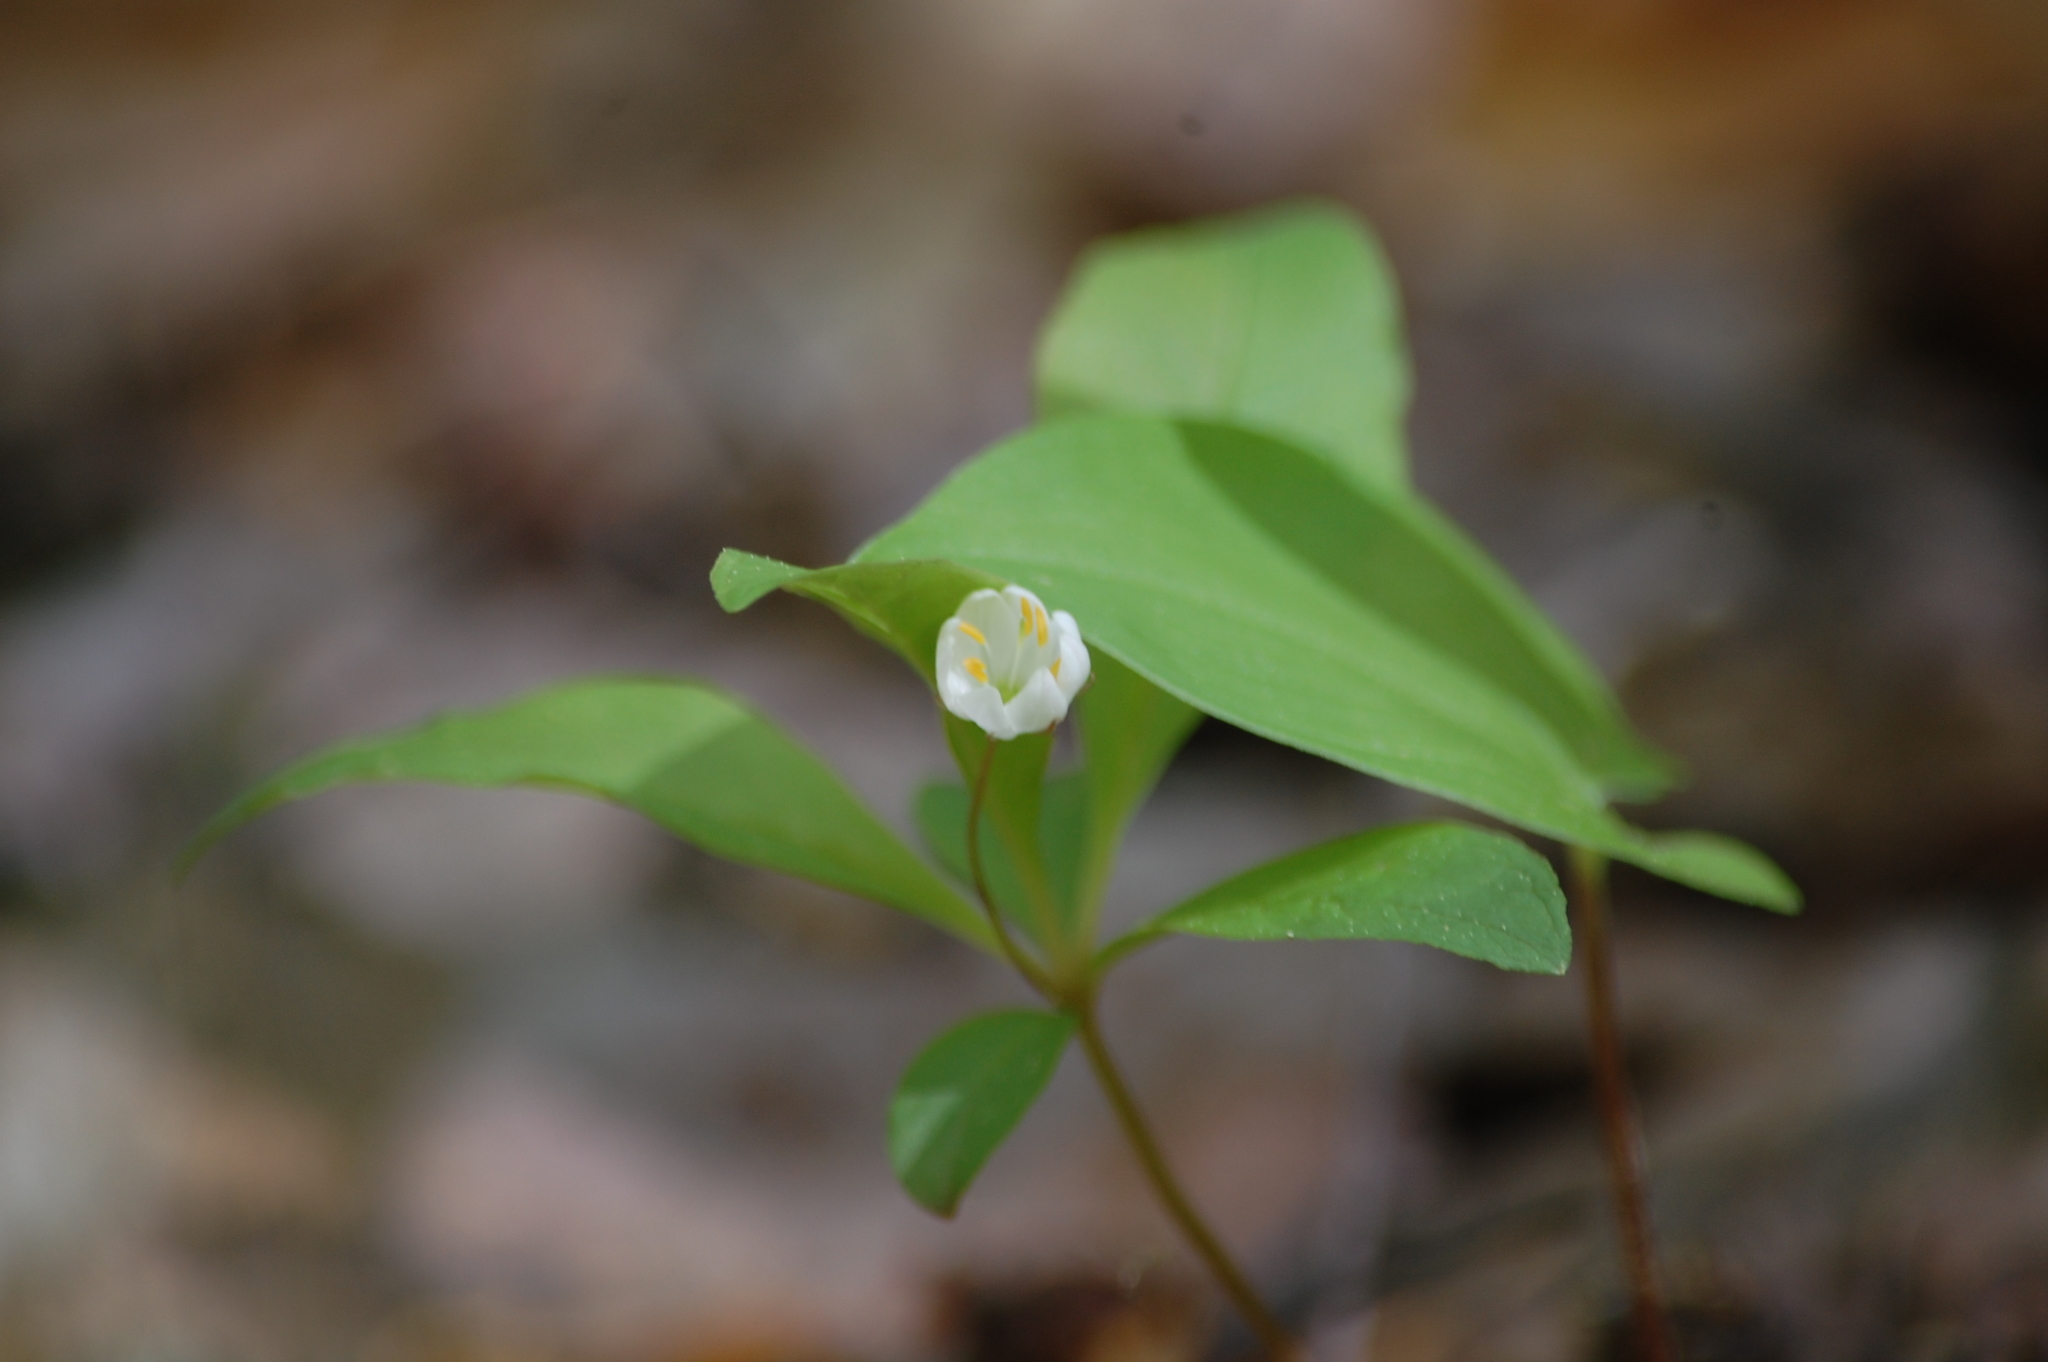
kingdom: Plantae
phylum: Tracheophyta
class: Magnoliopsida
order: Ericales
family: Primulaceae
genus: Lysimachia
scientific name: Lysimachia europaea
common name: Arctic starflower
